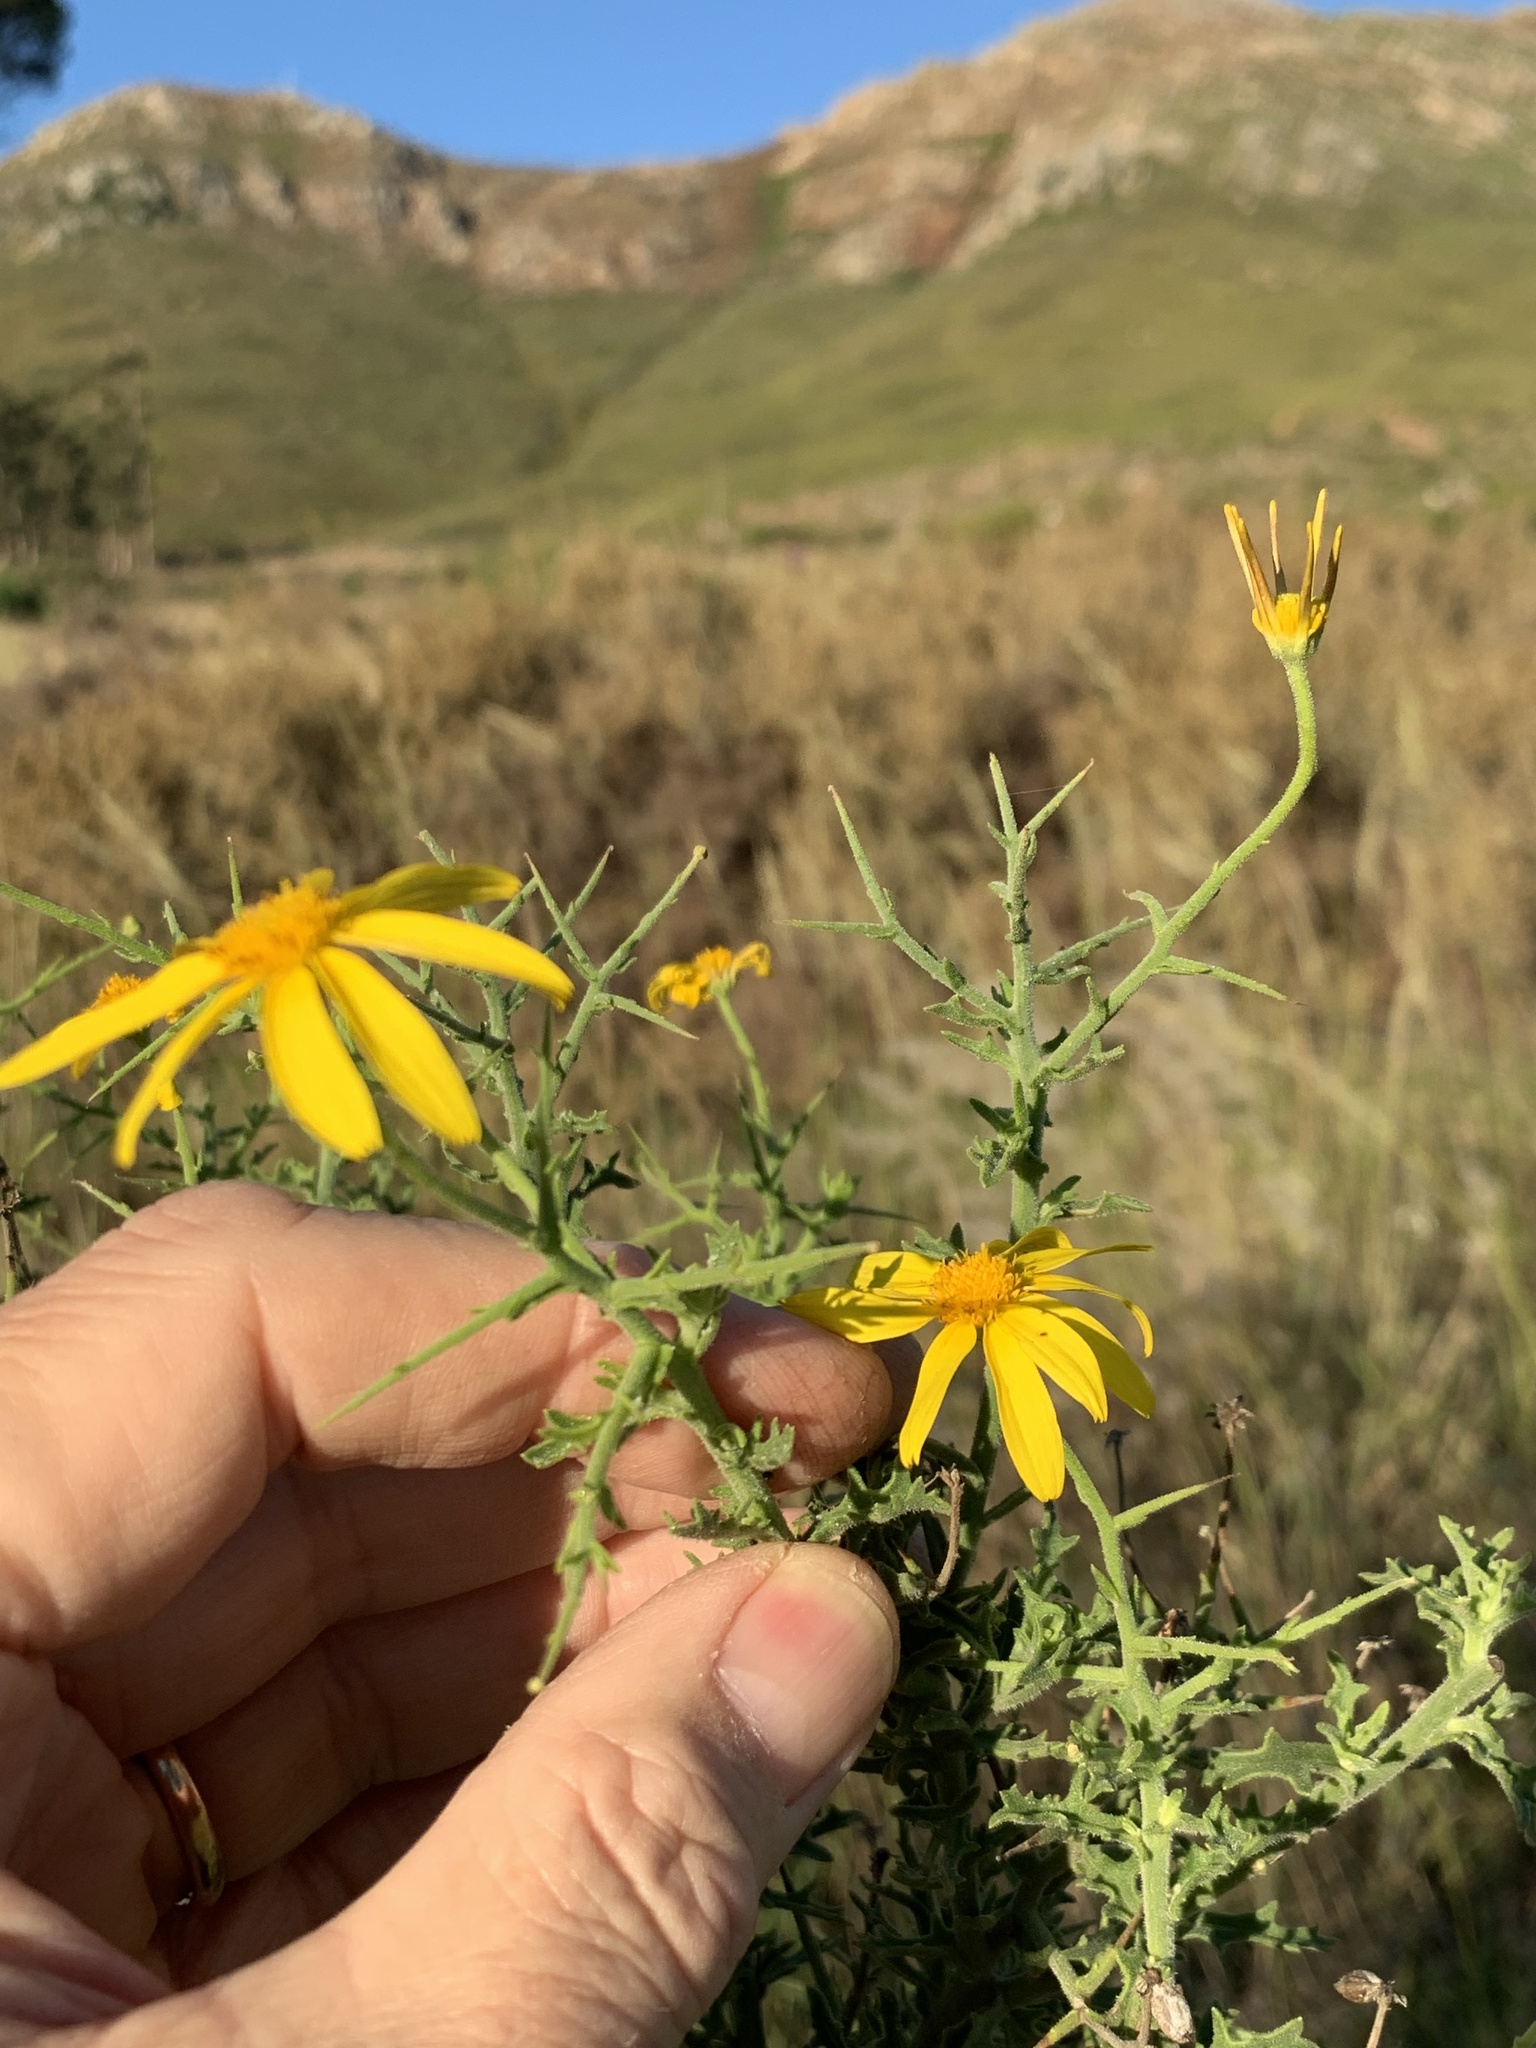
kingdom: Plantae
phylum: Tracheophyta
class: Magnoliopsida
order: Asterales
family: Asteraceae
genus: Osteospermum
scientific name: Osteospermum spinosum
